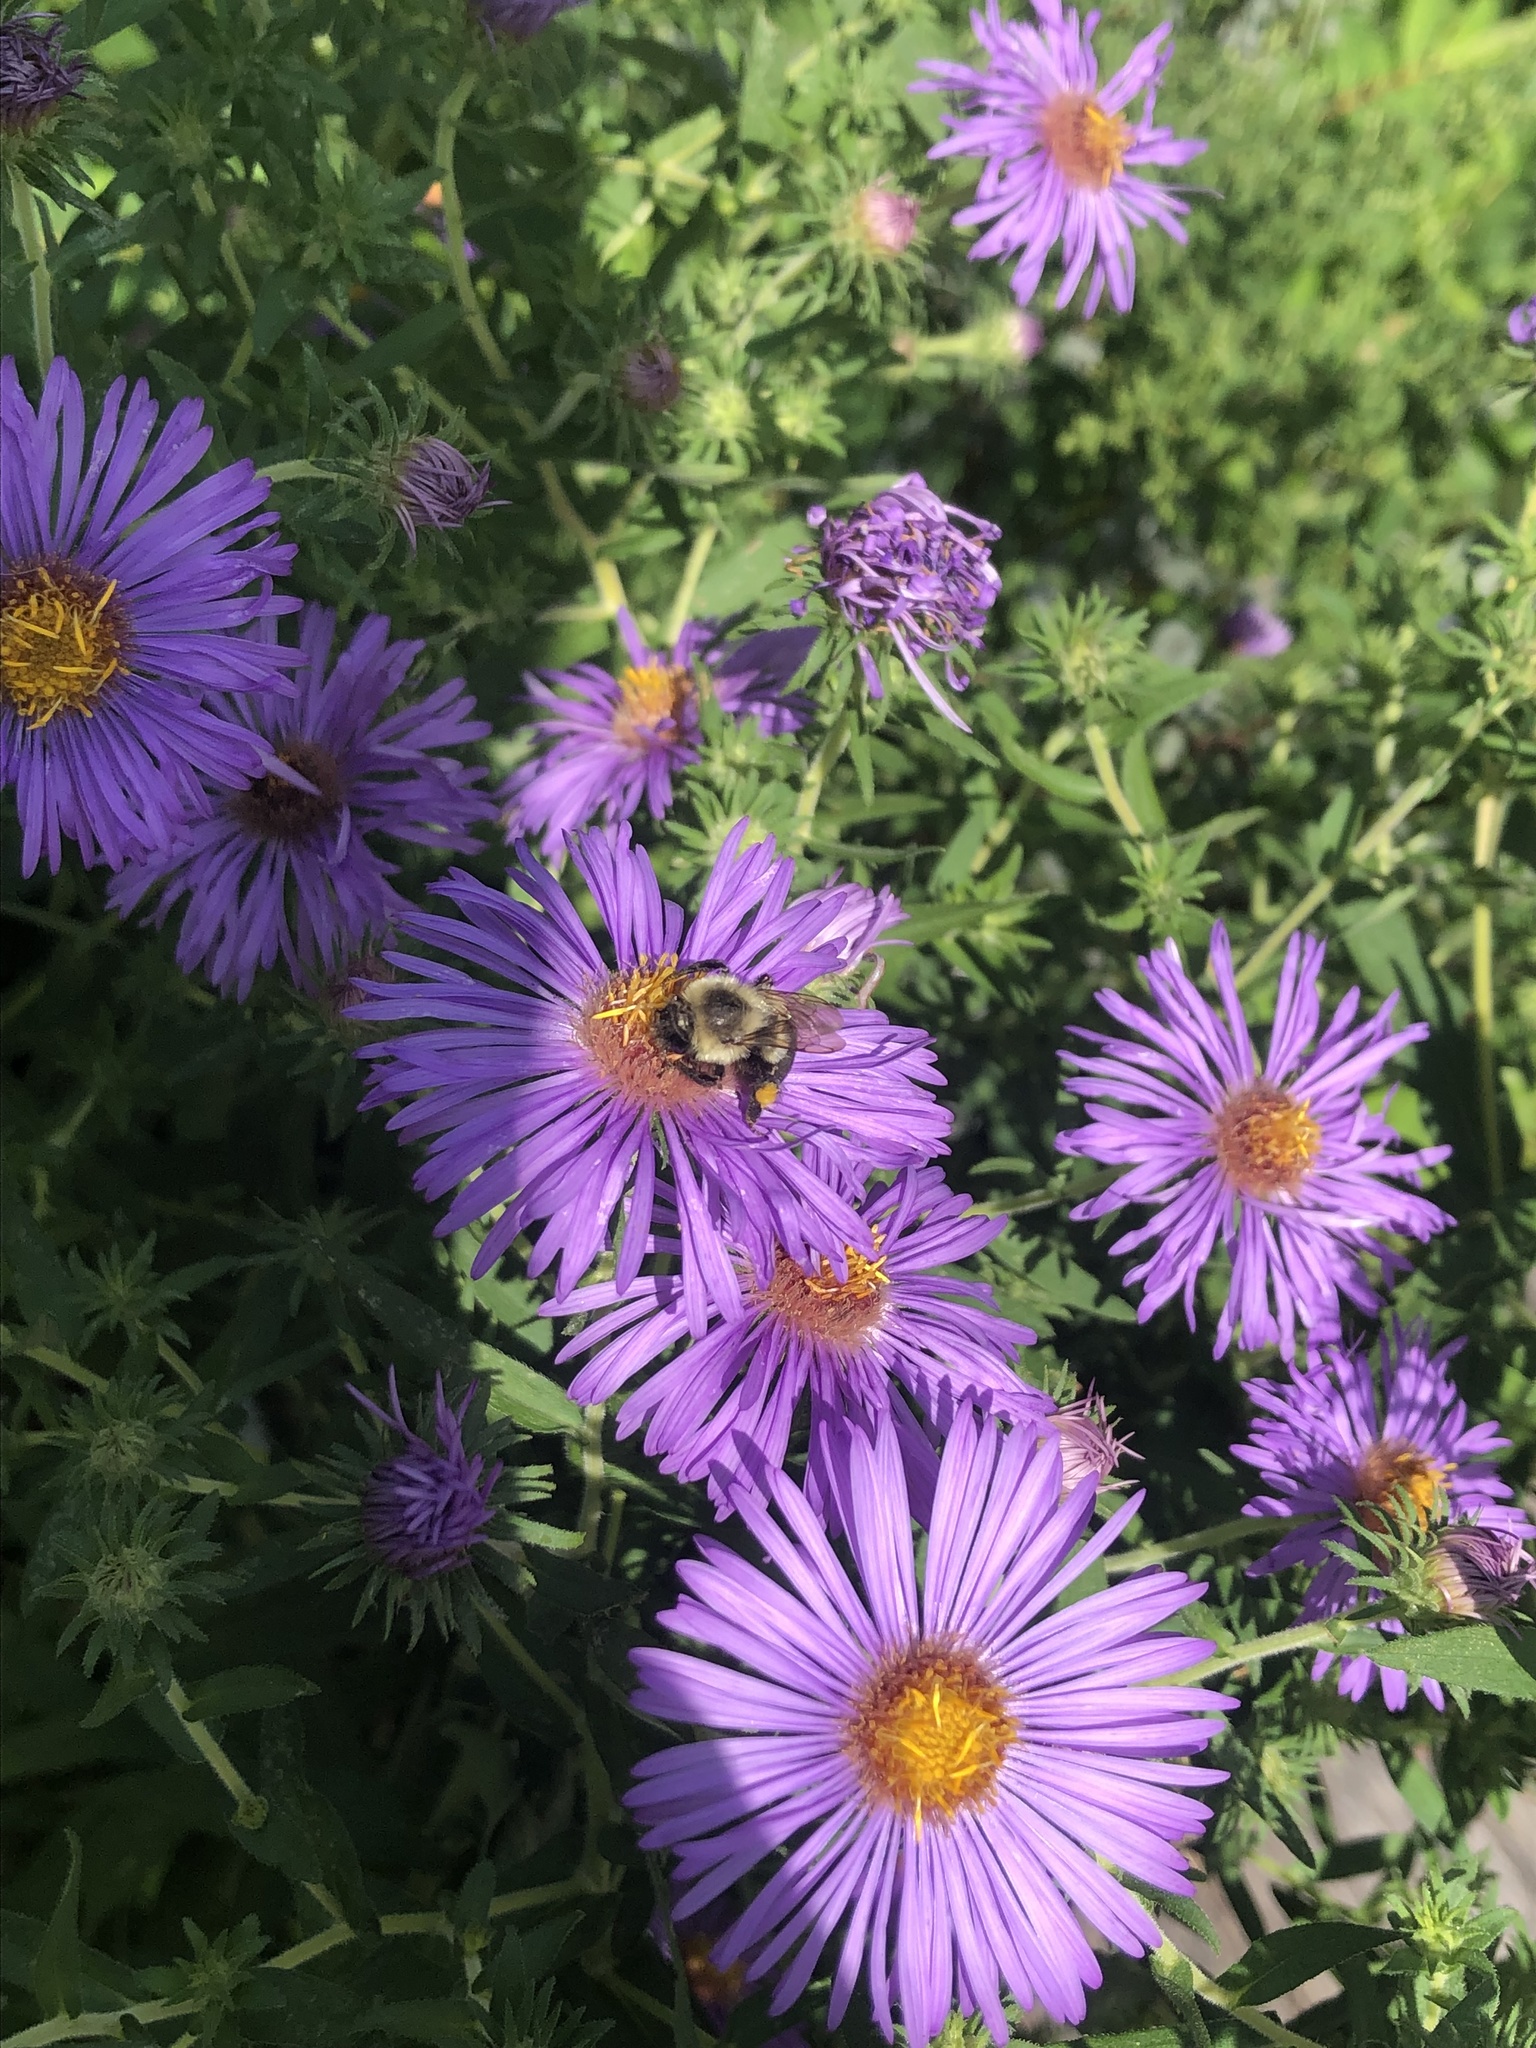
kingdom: Animalia
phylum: Arthropoda
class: Insecta
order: Hymenoptera
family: Apidae
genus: Bombus
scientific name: Bombus impatiens
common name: Common eastern bumble bee
